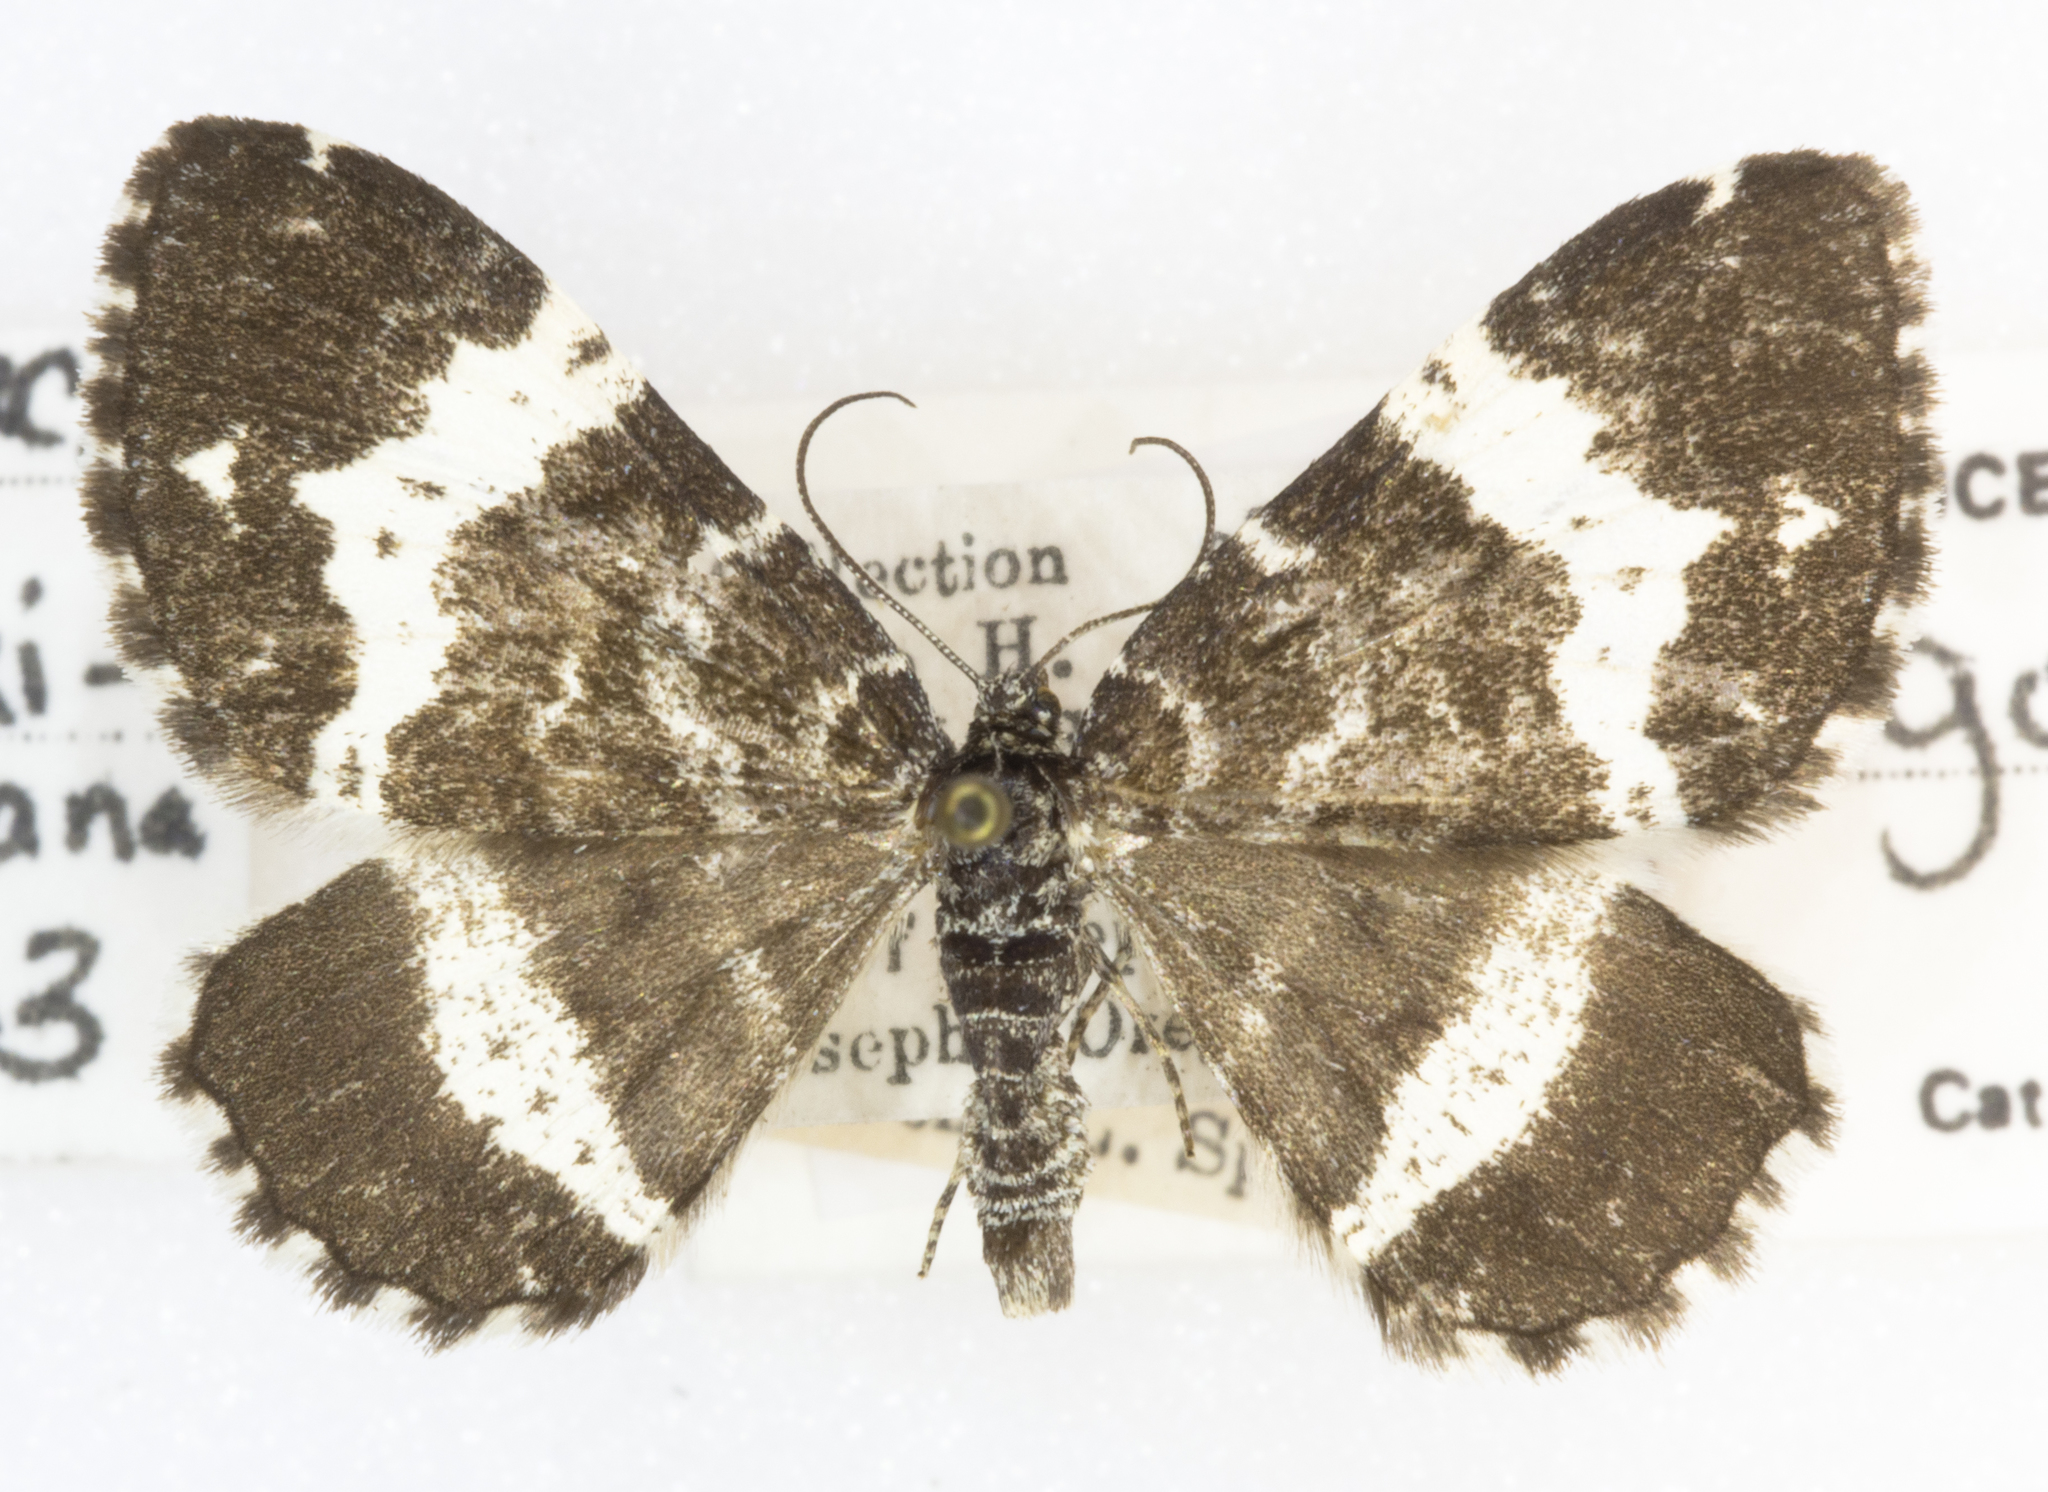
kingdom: Animalia
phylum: Arthropoda
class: Insecta
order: Lepidoptera
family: Geometridae
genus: Rheumaptera
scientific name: Rheumaptera hastata
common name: Argent & sable
